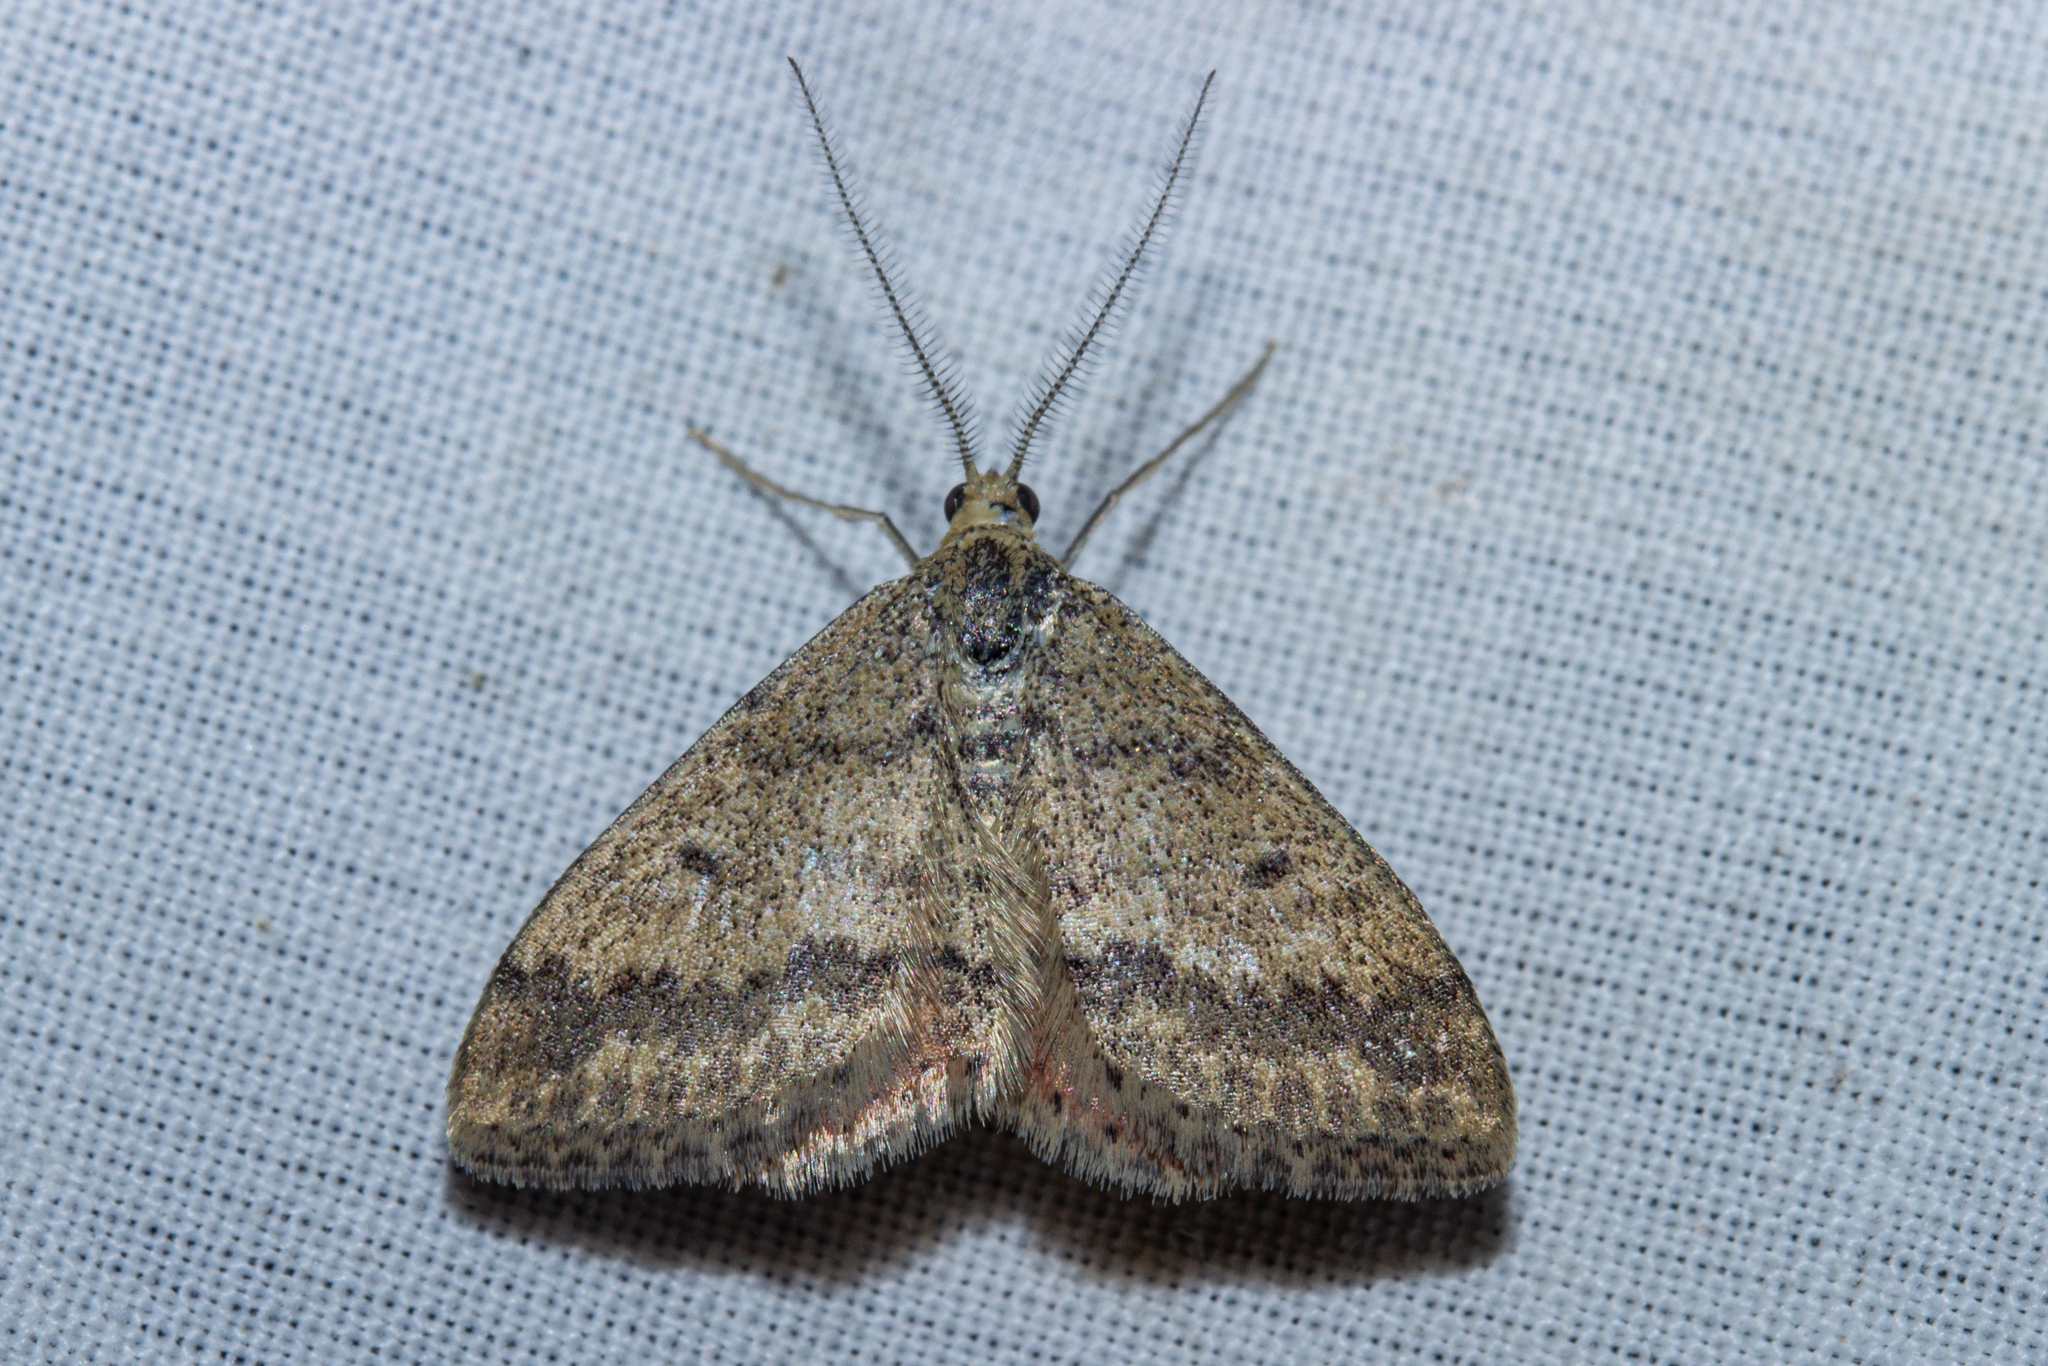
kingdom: Animalia
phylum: Arthropoda
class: Insecta
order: Lepidoptera
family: Geometridae
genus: Scopula
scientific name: Scopula rubraria
